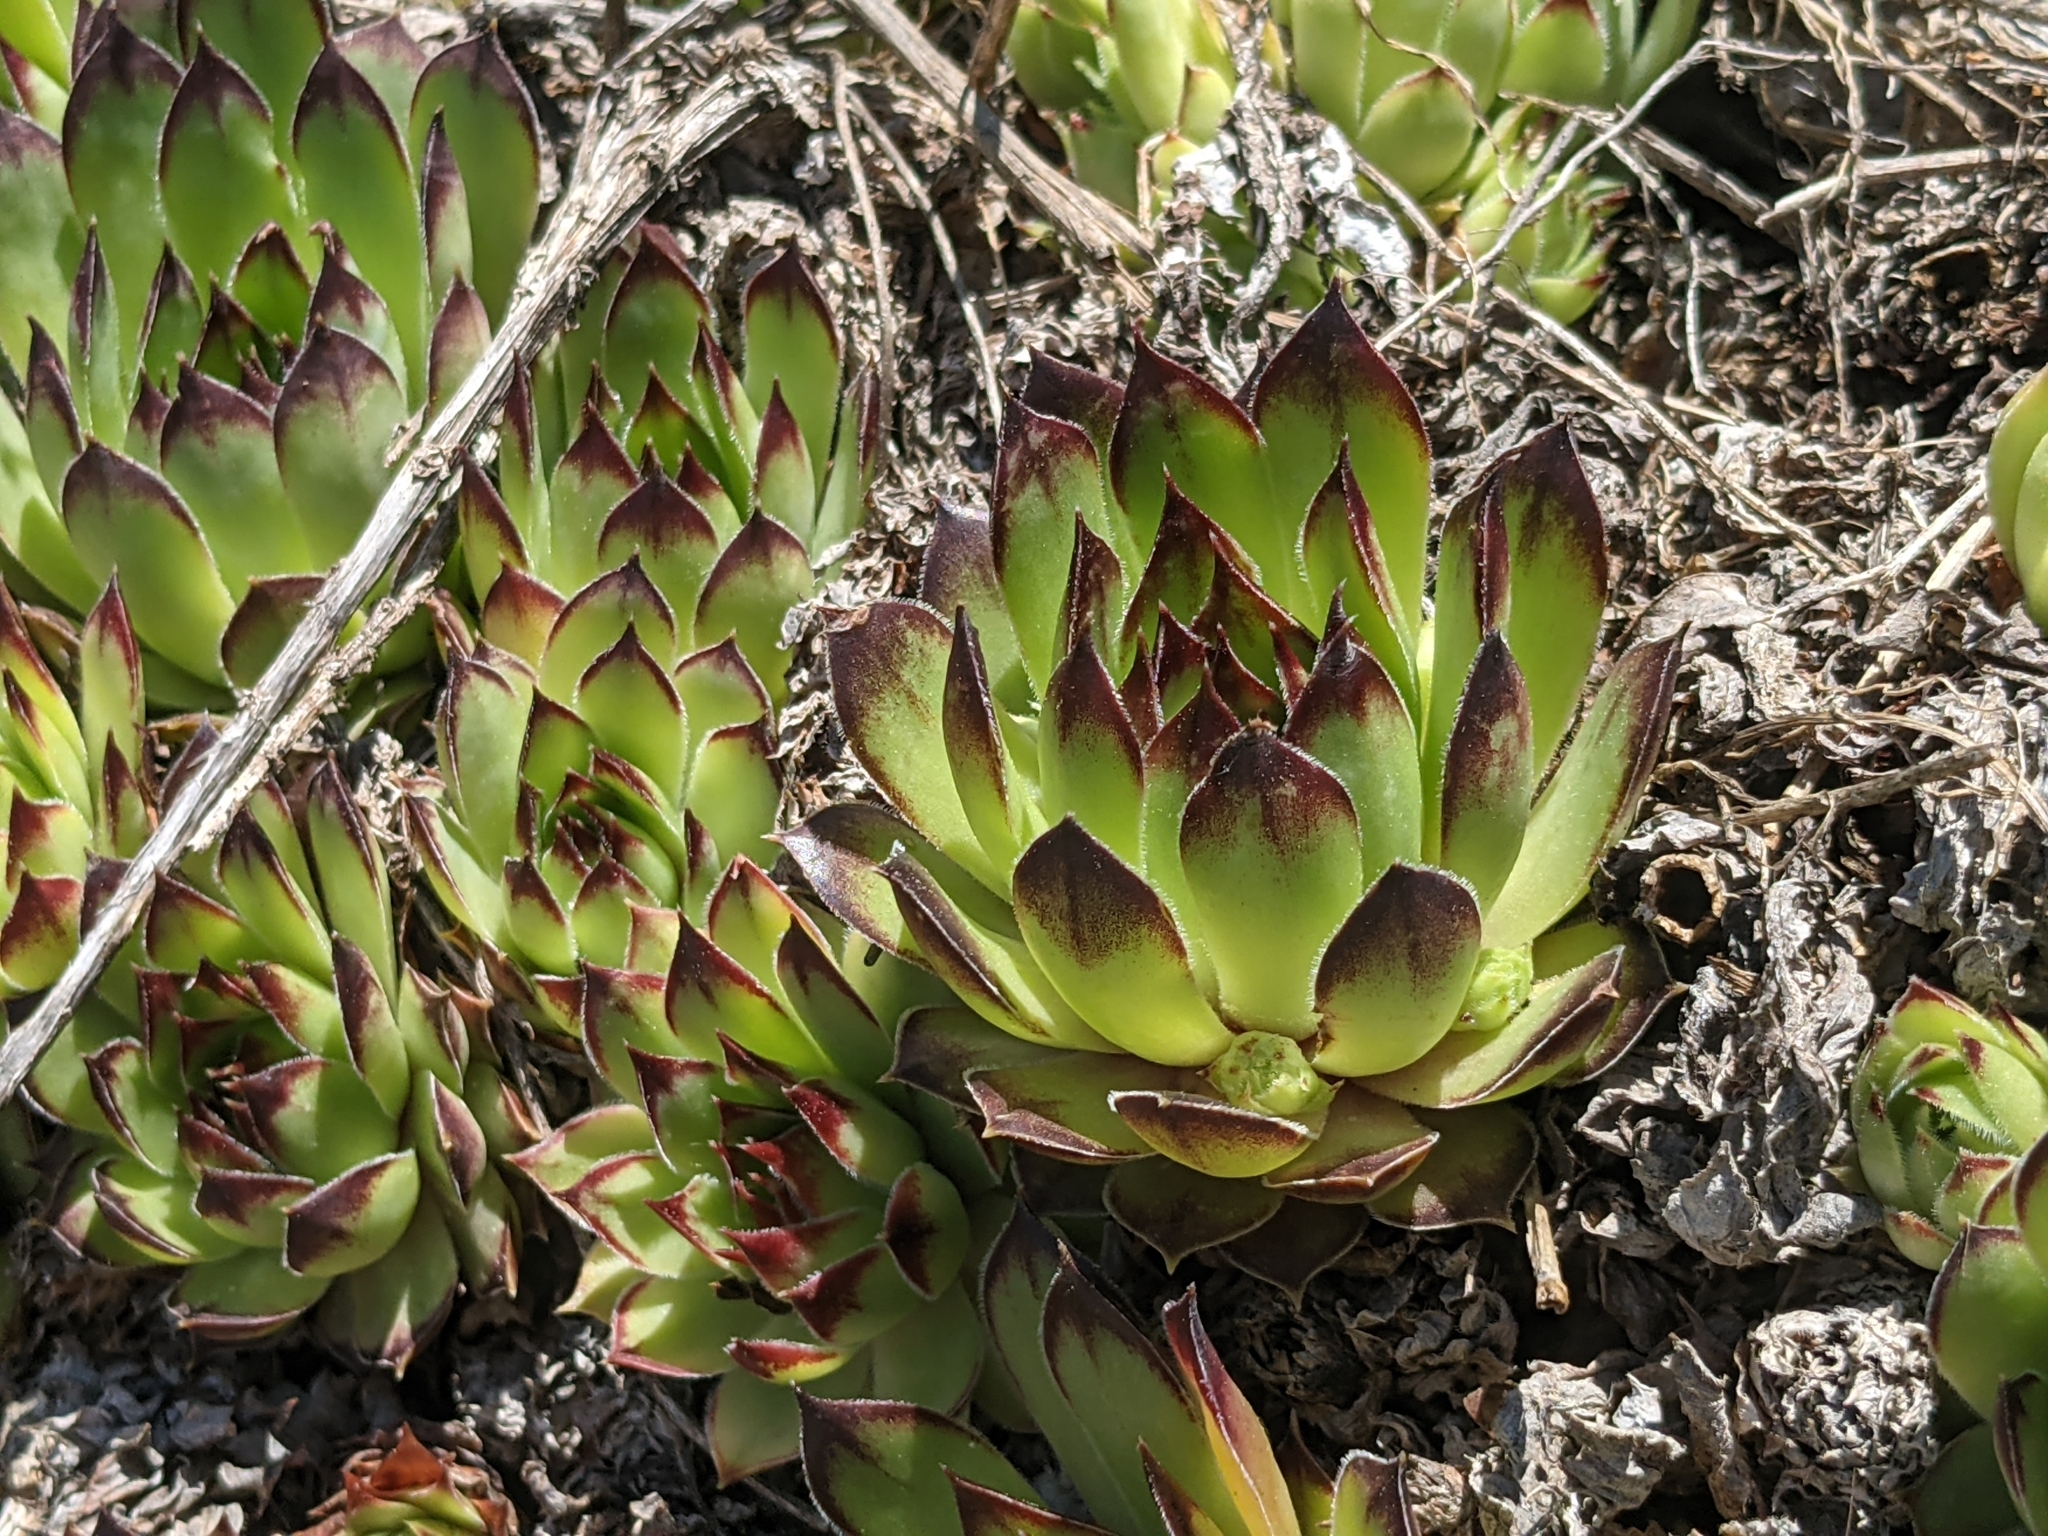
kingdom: Plantae
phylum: Tracheophyta
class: Magnoliopsida
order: Saxifragales
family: Crassulaceae
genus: Sempervivum
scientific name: Sempervivum tectorum
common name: House-leek
